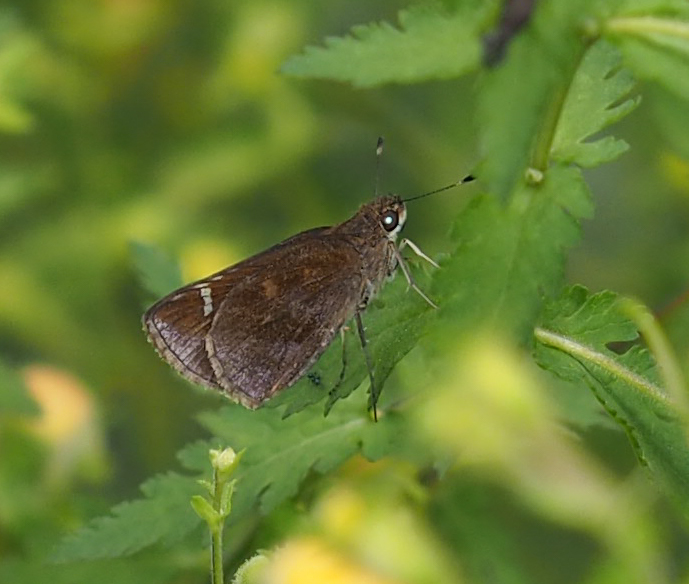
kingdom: Animalia
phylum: Arthropoda
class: Insecta
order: Lepidoptera
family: Hesperiidae
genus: Lerema
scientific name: Lerema accius
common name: Clouded skipper
